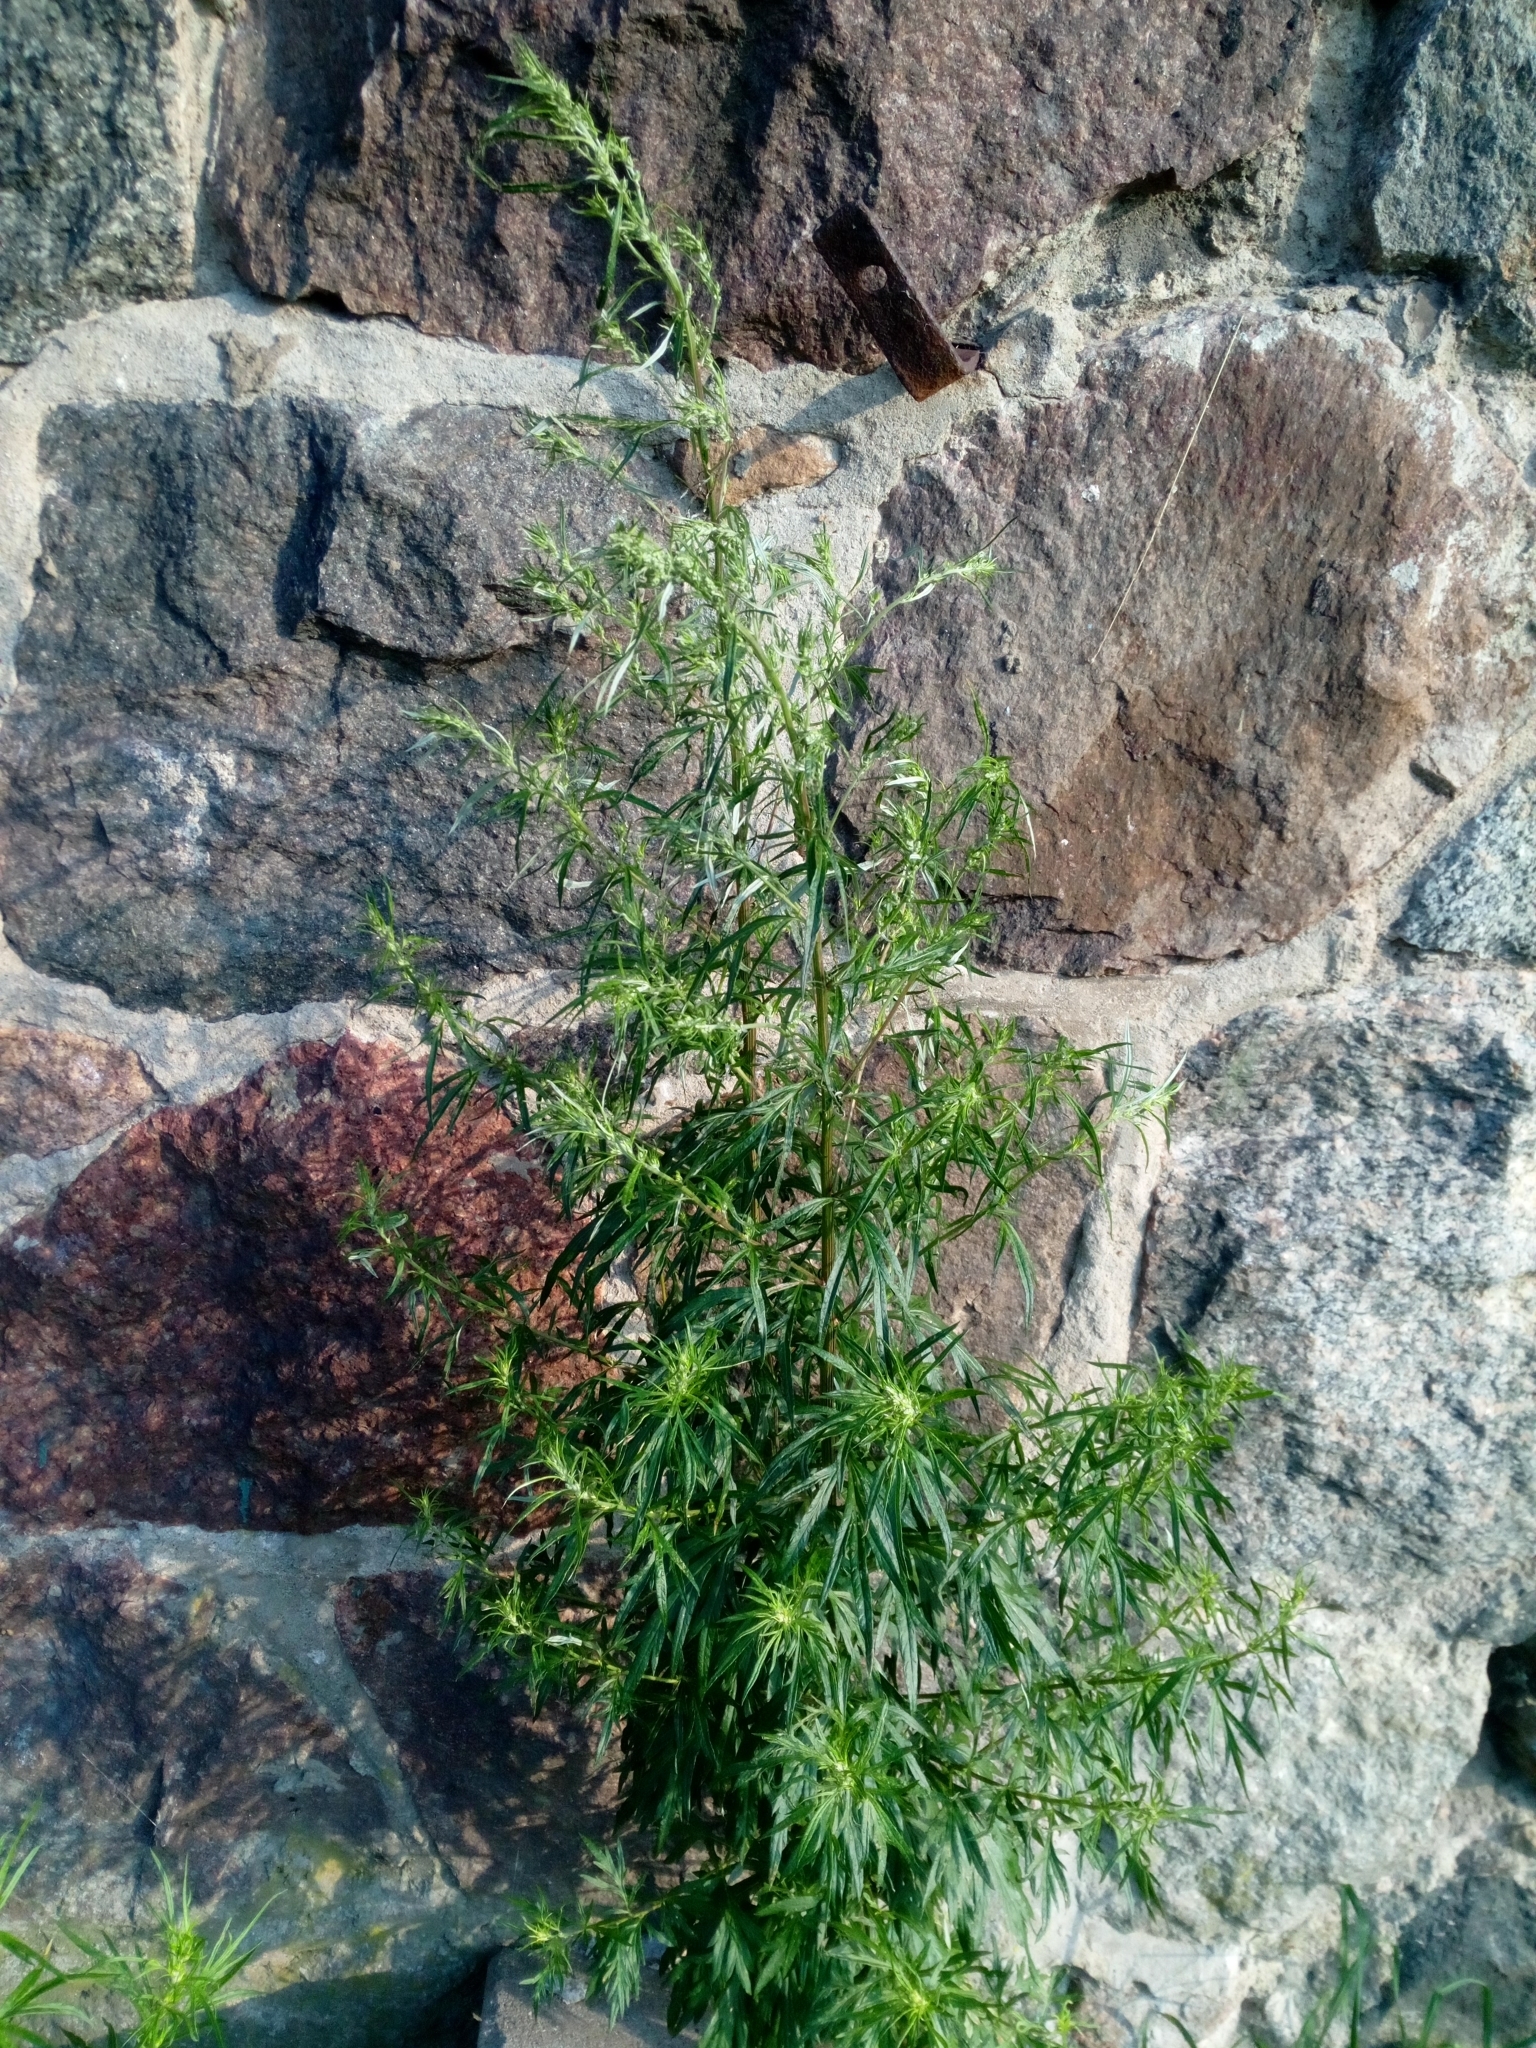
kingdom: Plantae
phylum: Tracheophyta
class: Magnoliopsida
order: Asterales
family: Asteraceae
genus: Artemisia
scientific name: Artemisia vulgaris
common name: Mugwort
